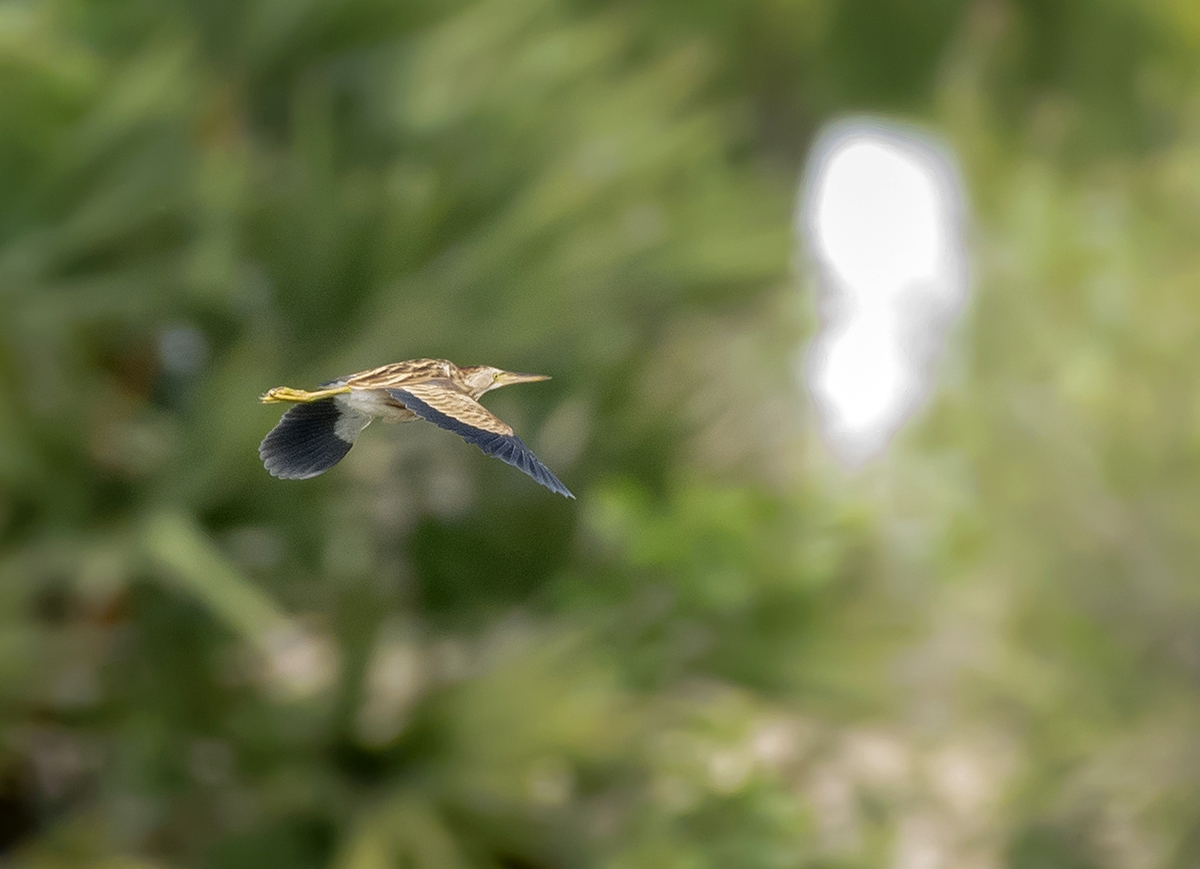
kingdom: Animalia
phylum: Chordata
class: Aves
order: Pelecaniformes
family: Ardeidae
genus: Ixobrychus
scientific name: Ixobrychus sinensis
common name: Yellow bittern
